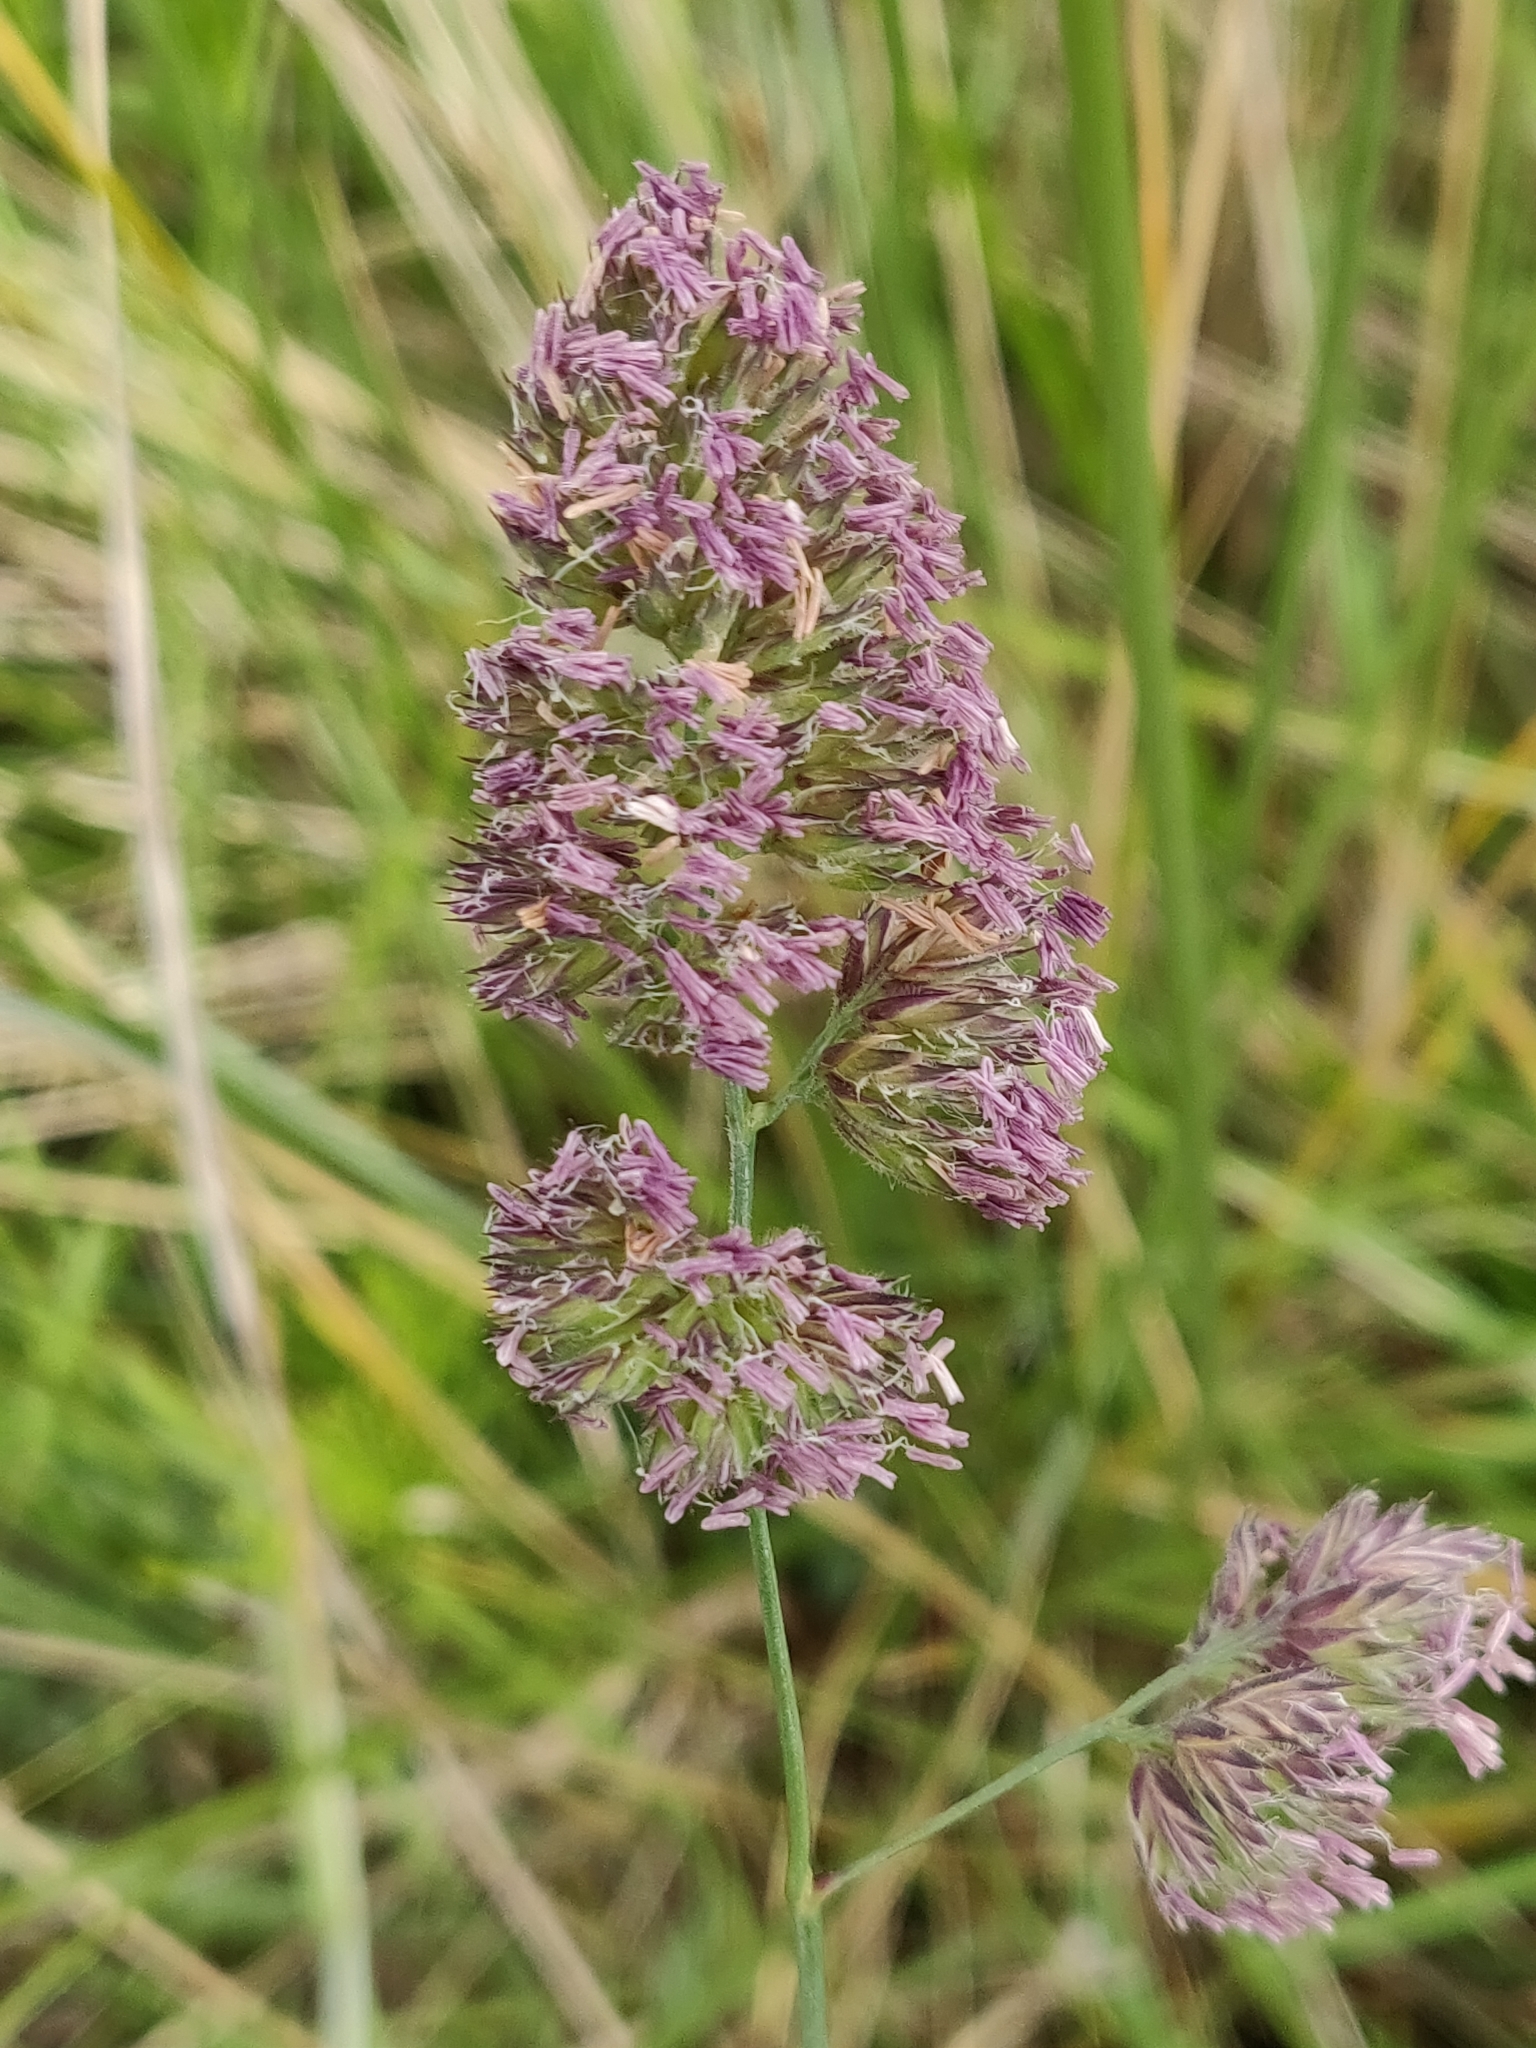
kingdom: Plantae
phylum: Tracheophyta
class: Liliopsida
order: Poales
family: Poaceae
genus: Dactylis
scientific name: Dactylis glomerata
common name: Orchardgrass
